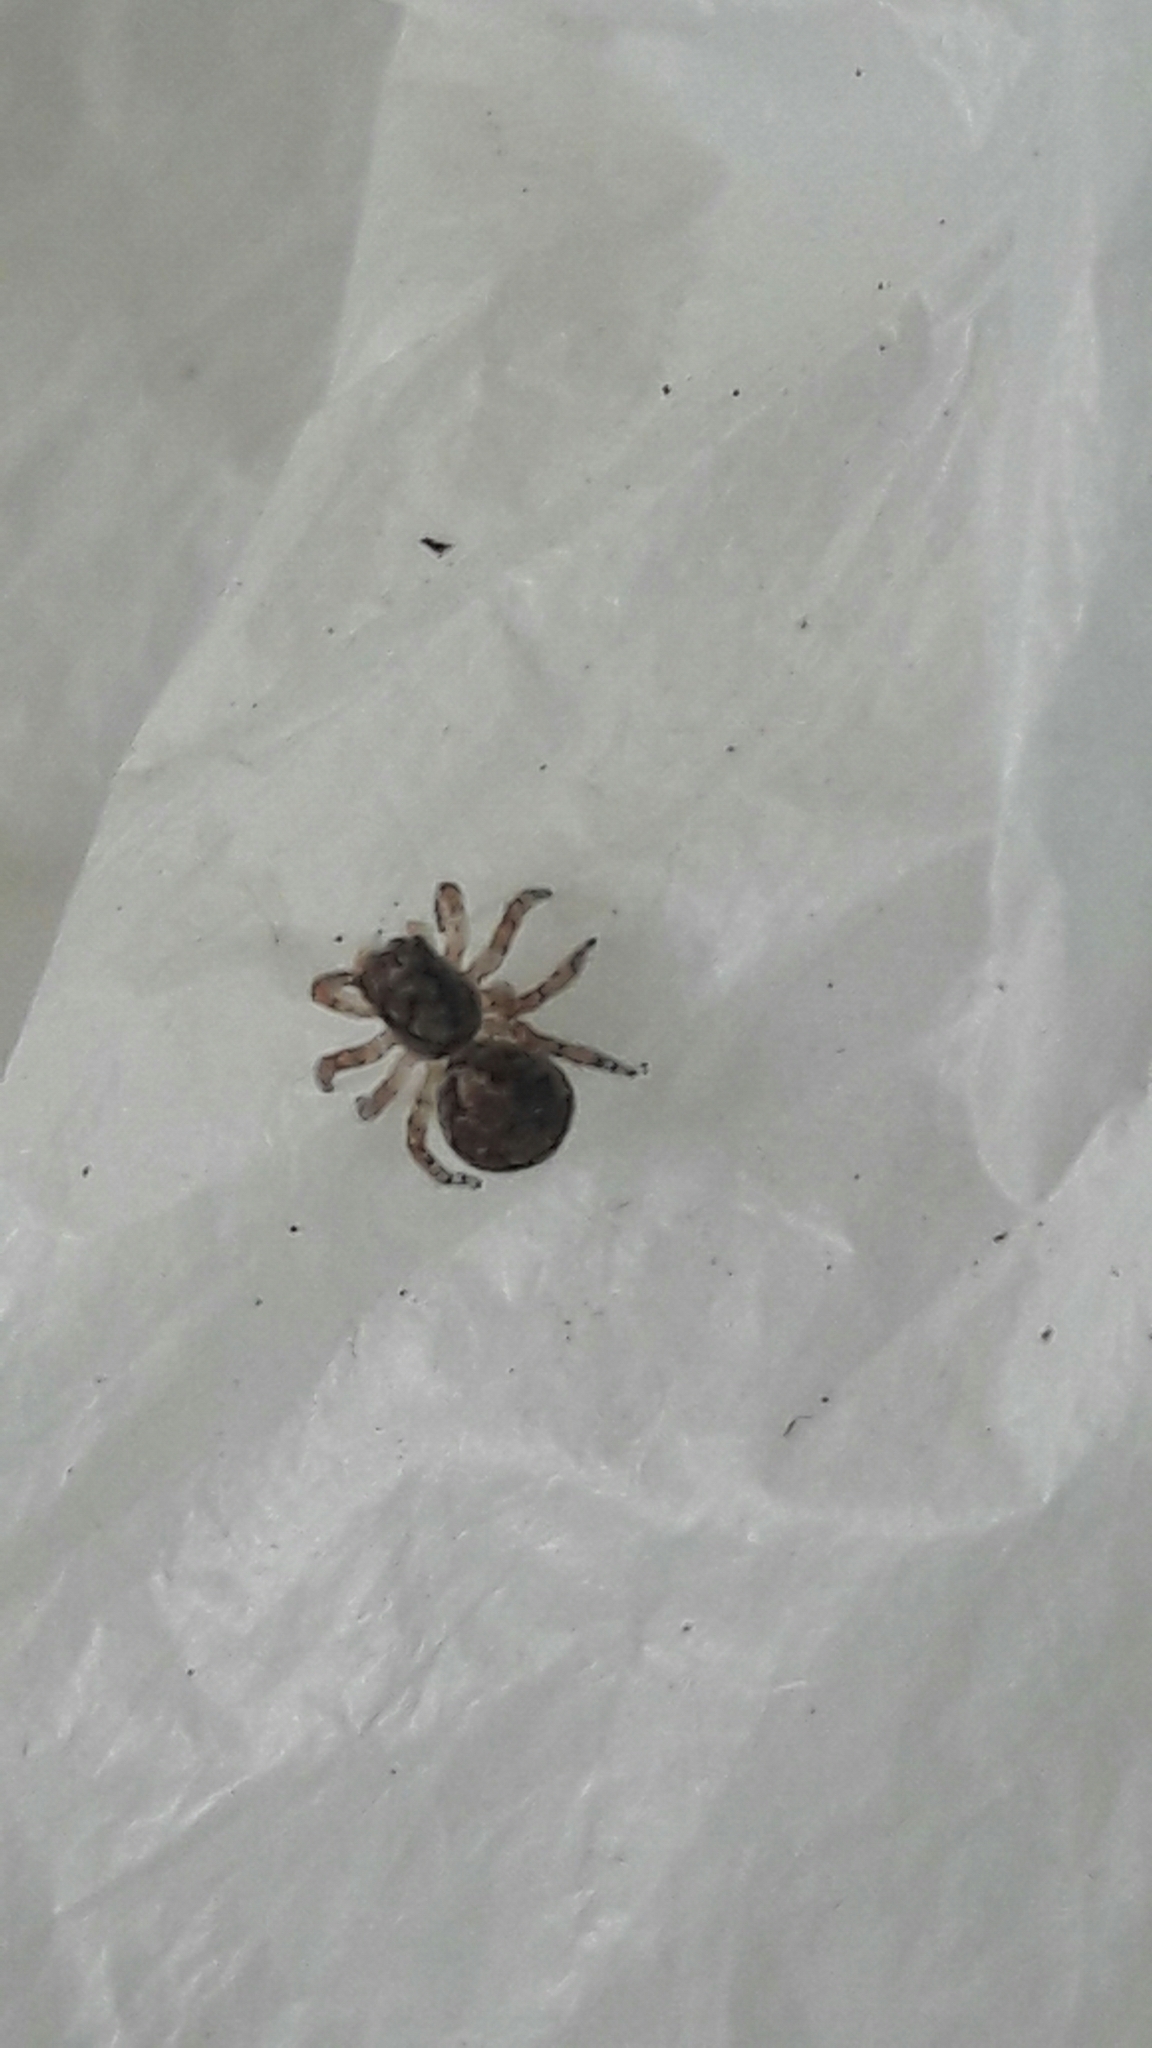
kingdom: Animalia
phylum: Arthropoda
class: Arachnida
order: Araneae
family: Salticidae
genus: Marma
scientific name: Marma nigritarsis
